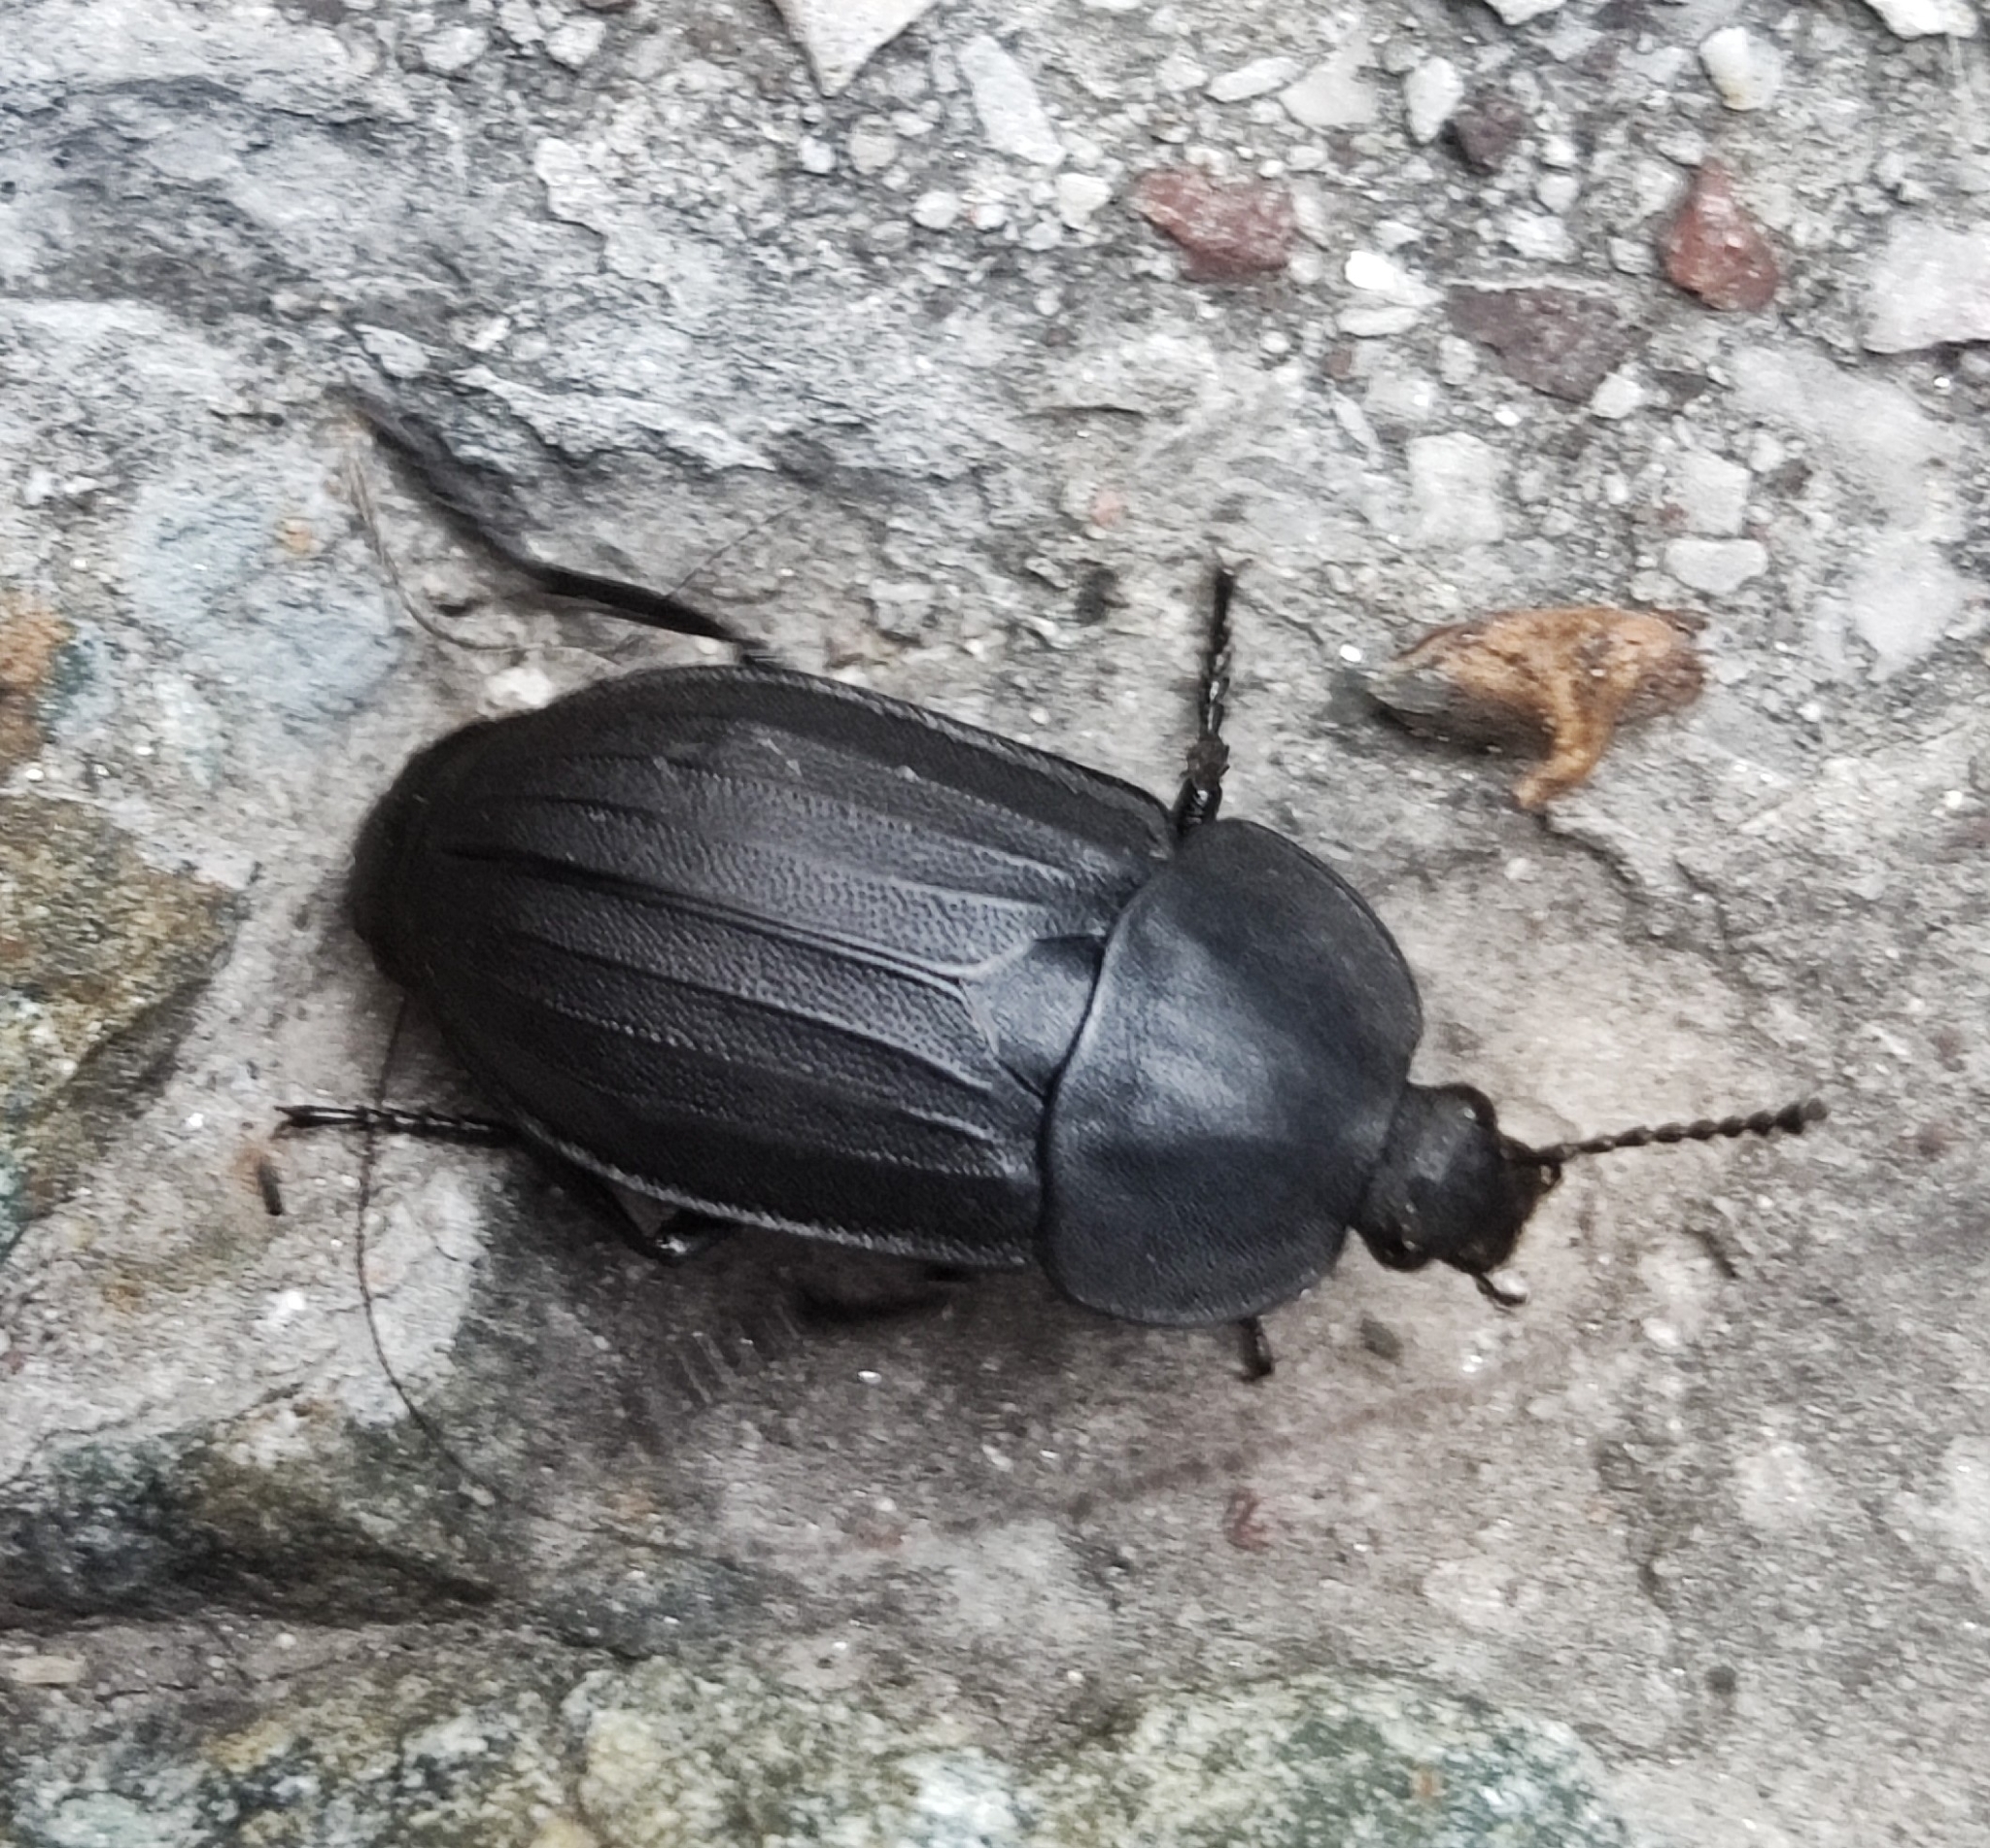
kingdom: Animalia
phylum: Arthropoda
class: Insecta
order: Coleoptera
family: Staphylinidae
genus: Silpha
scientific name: Silpha tristis
